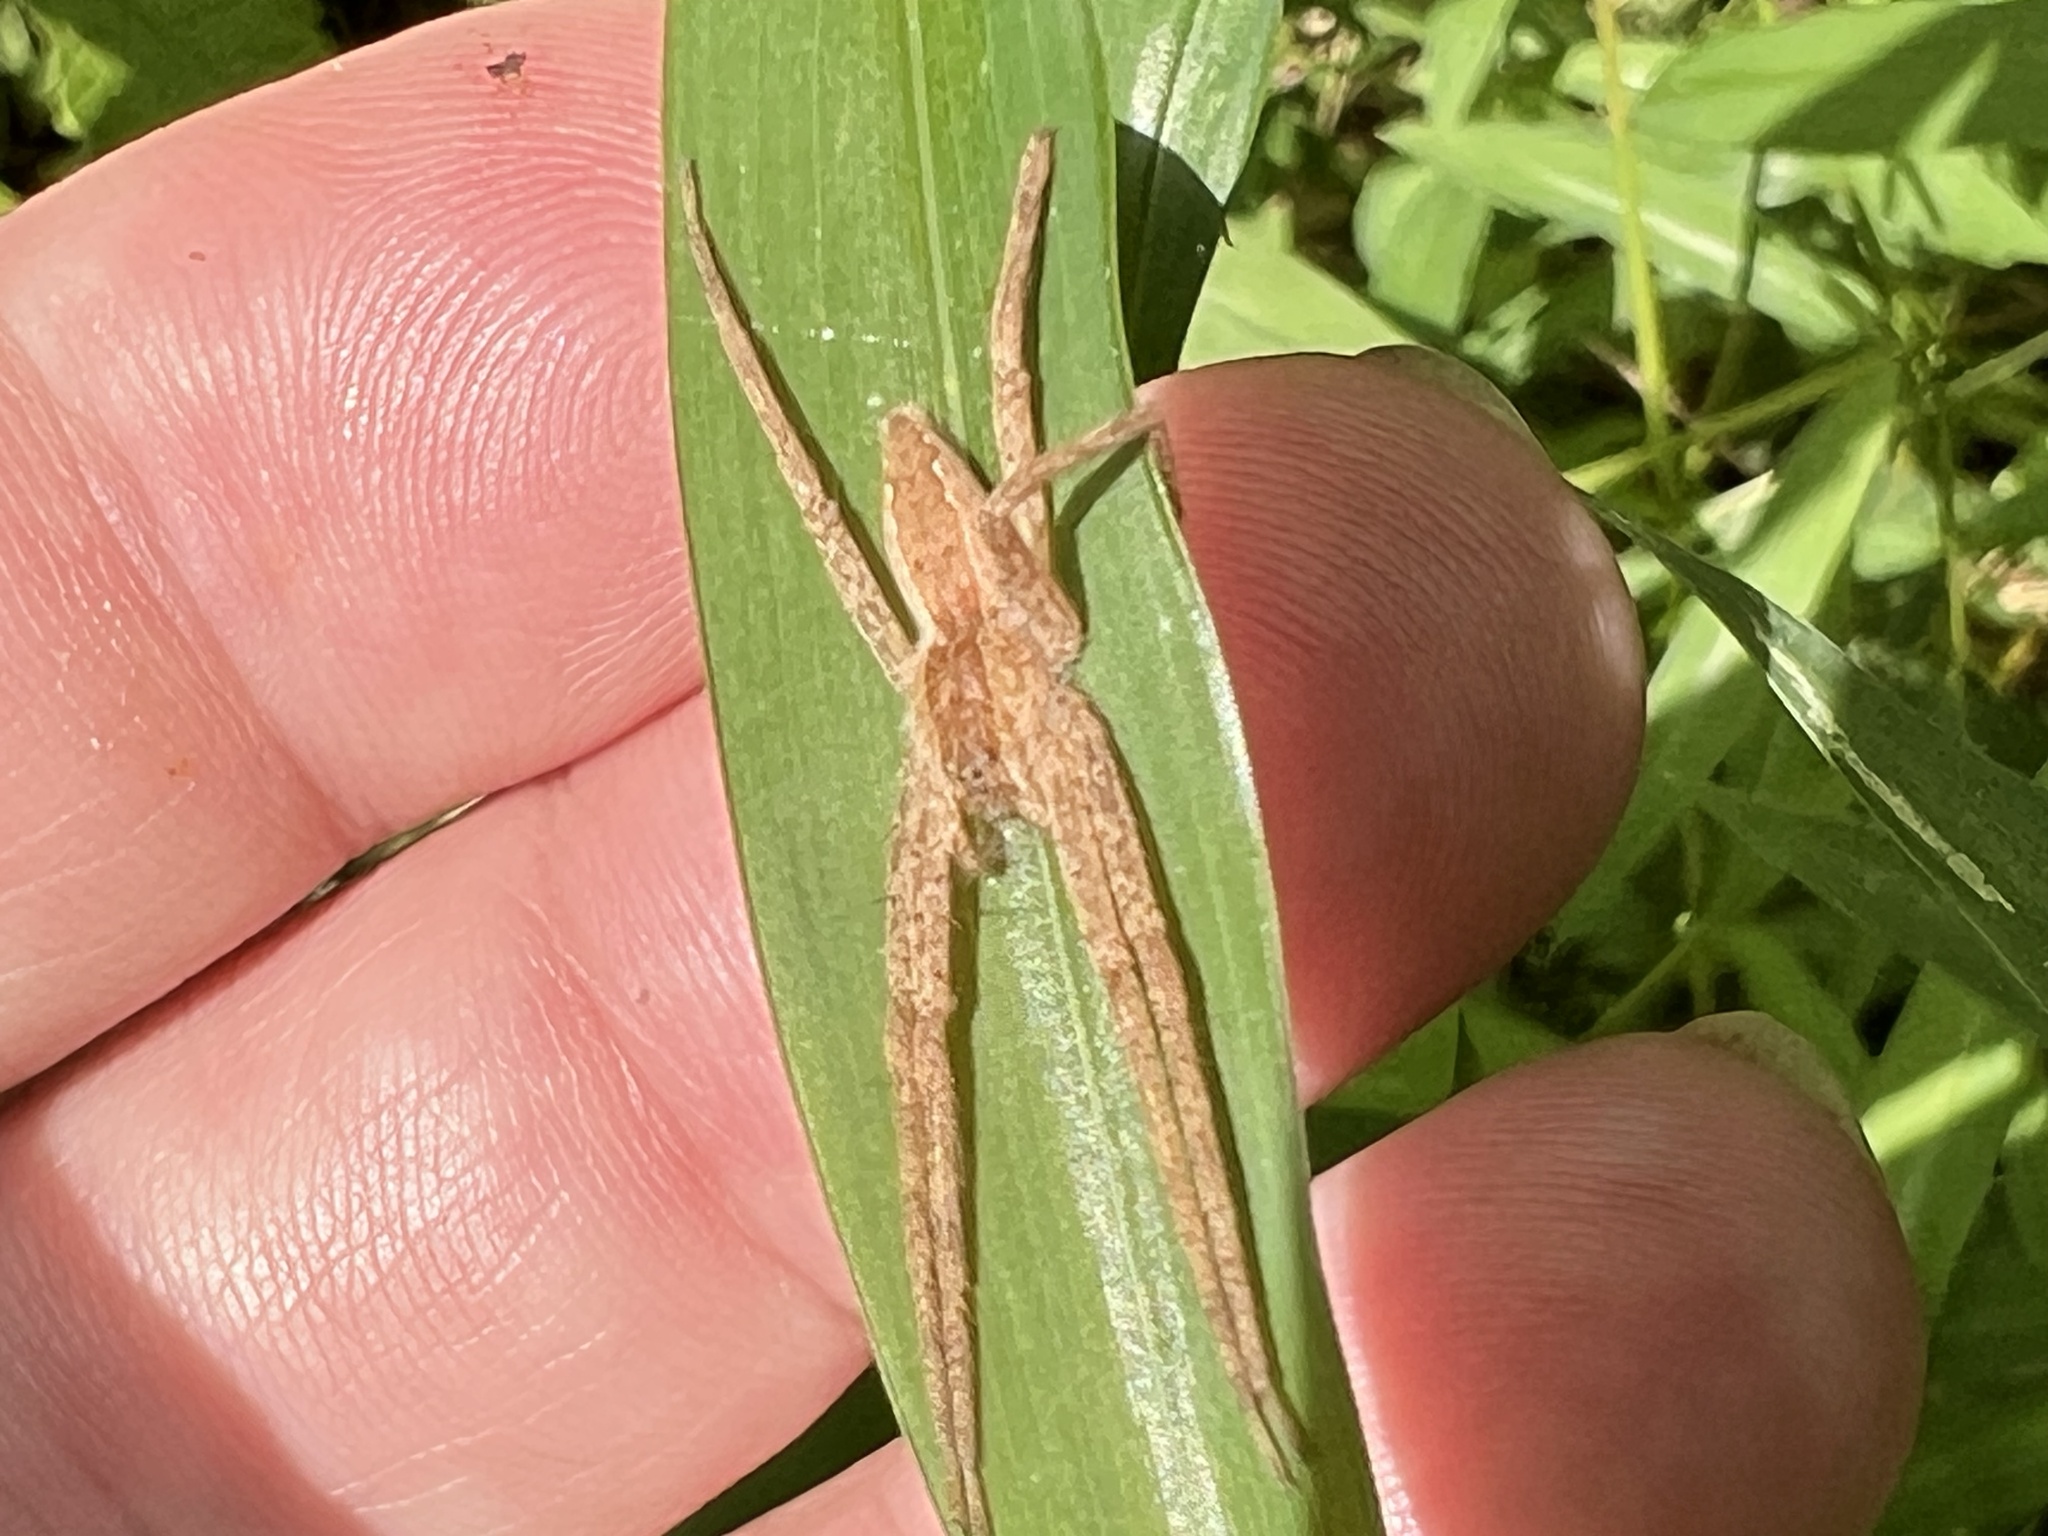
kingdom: Animalia
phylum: Arthropoda
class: Arachnida
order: Araneae
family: Pisauridae
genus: Pisaurina
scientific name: Pisaurina mira
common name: American nursery web spider
